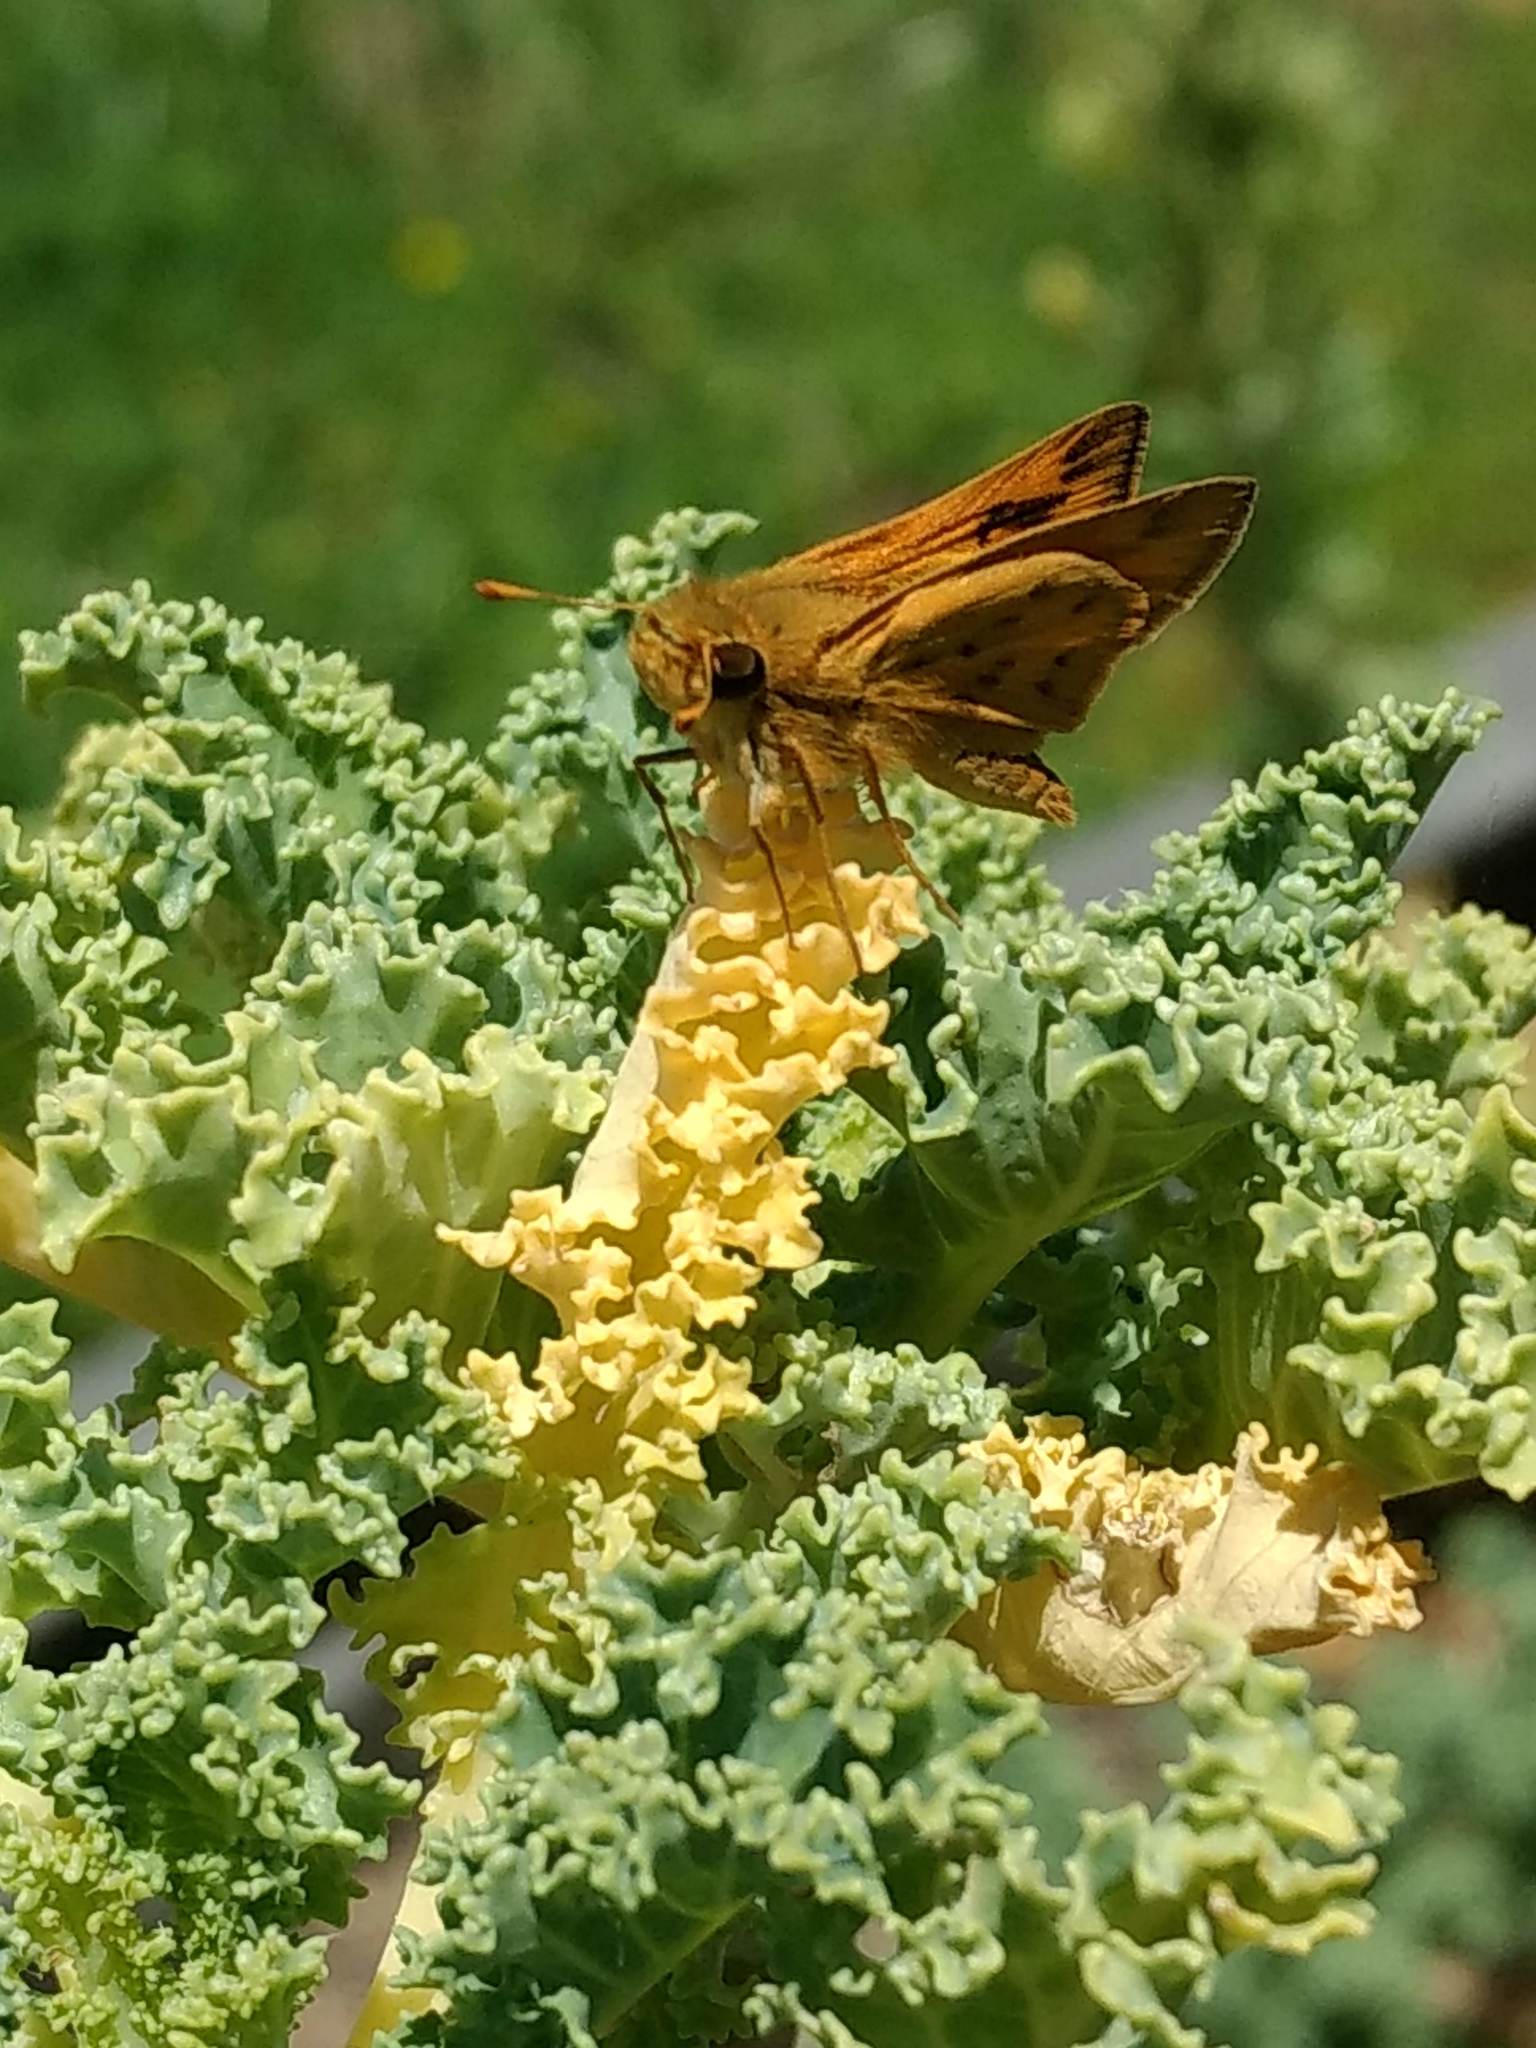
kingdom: Animalia
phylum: Arthropoda
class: Insecta
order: Lepidoptera
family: Hesperiidae
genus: Hylephila
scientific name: Hylephila phyleus
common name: Fiery skipper
